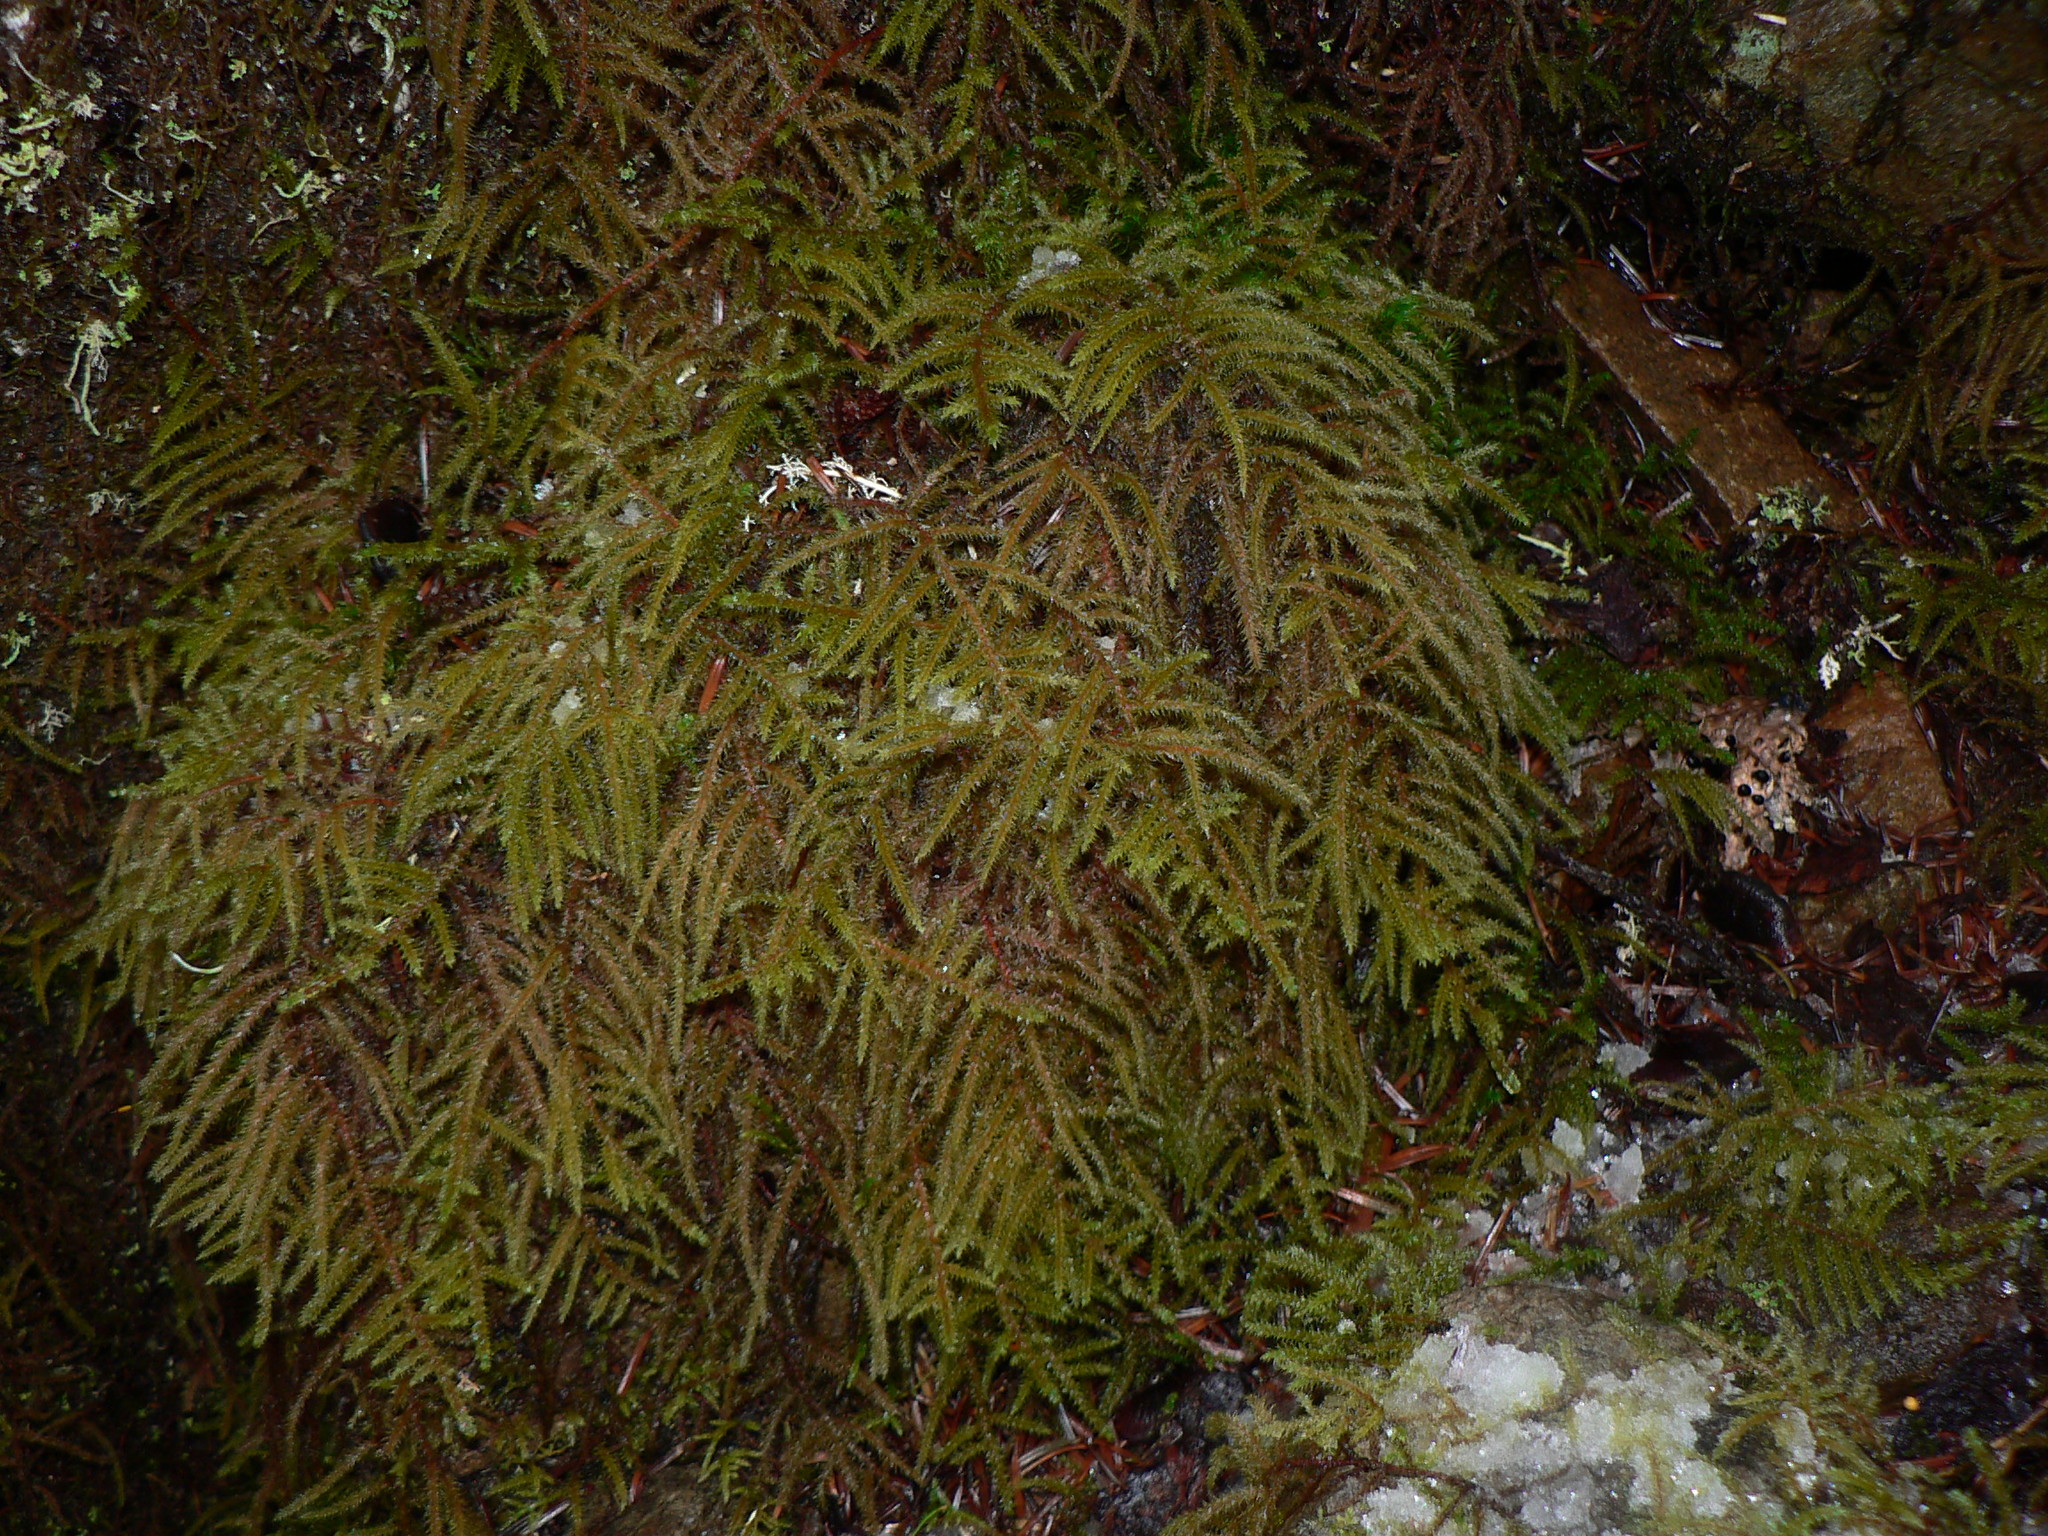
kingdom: Plantae
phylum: Bryophyta
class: Bryopsida
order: Hypnales
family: Hylocomiaceae
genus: Rhytidiadelphus
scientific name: Rhytidiadelphus loreus
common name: Lanky moss
